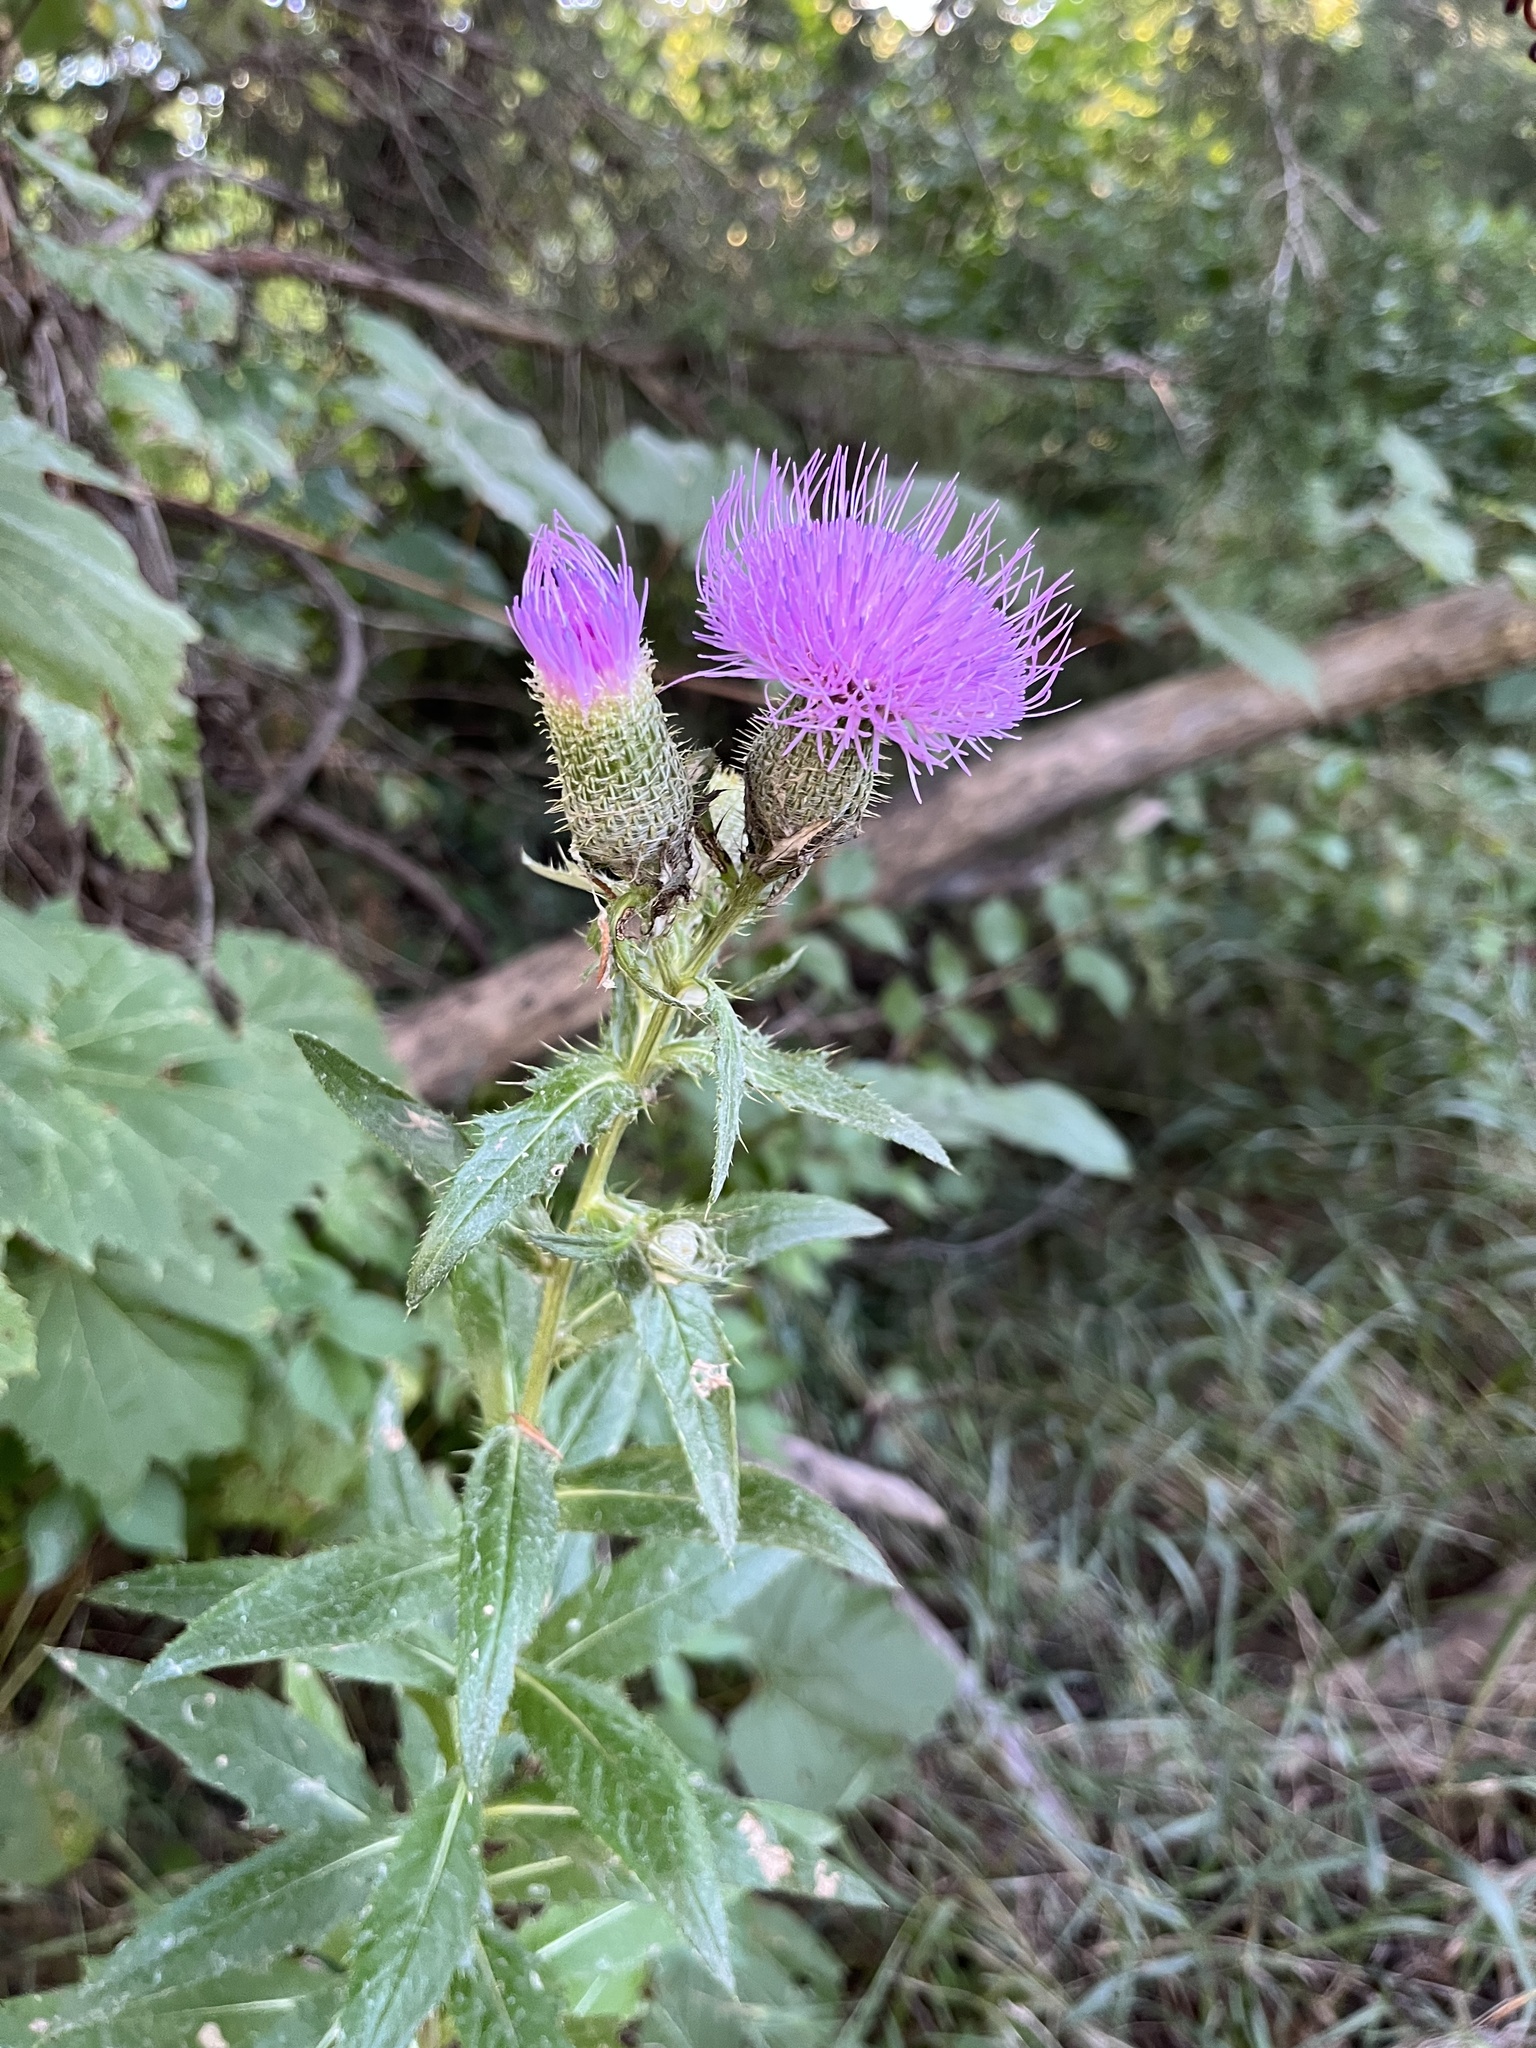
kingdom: Plantae
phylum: Tracheophyta
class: Magnoliopsida
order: Asterales
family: Asteraceae
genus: Cirsium
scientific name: Cirsium altissimum
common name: Roadside thistle
